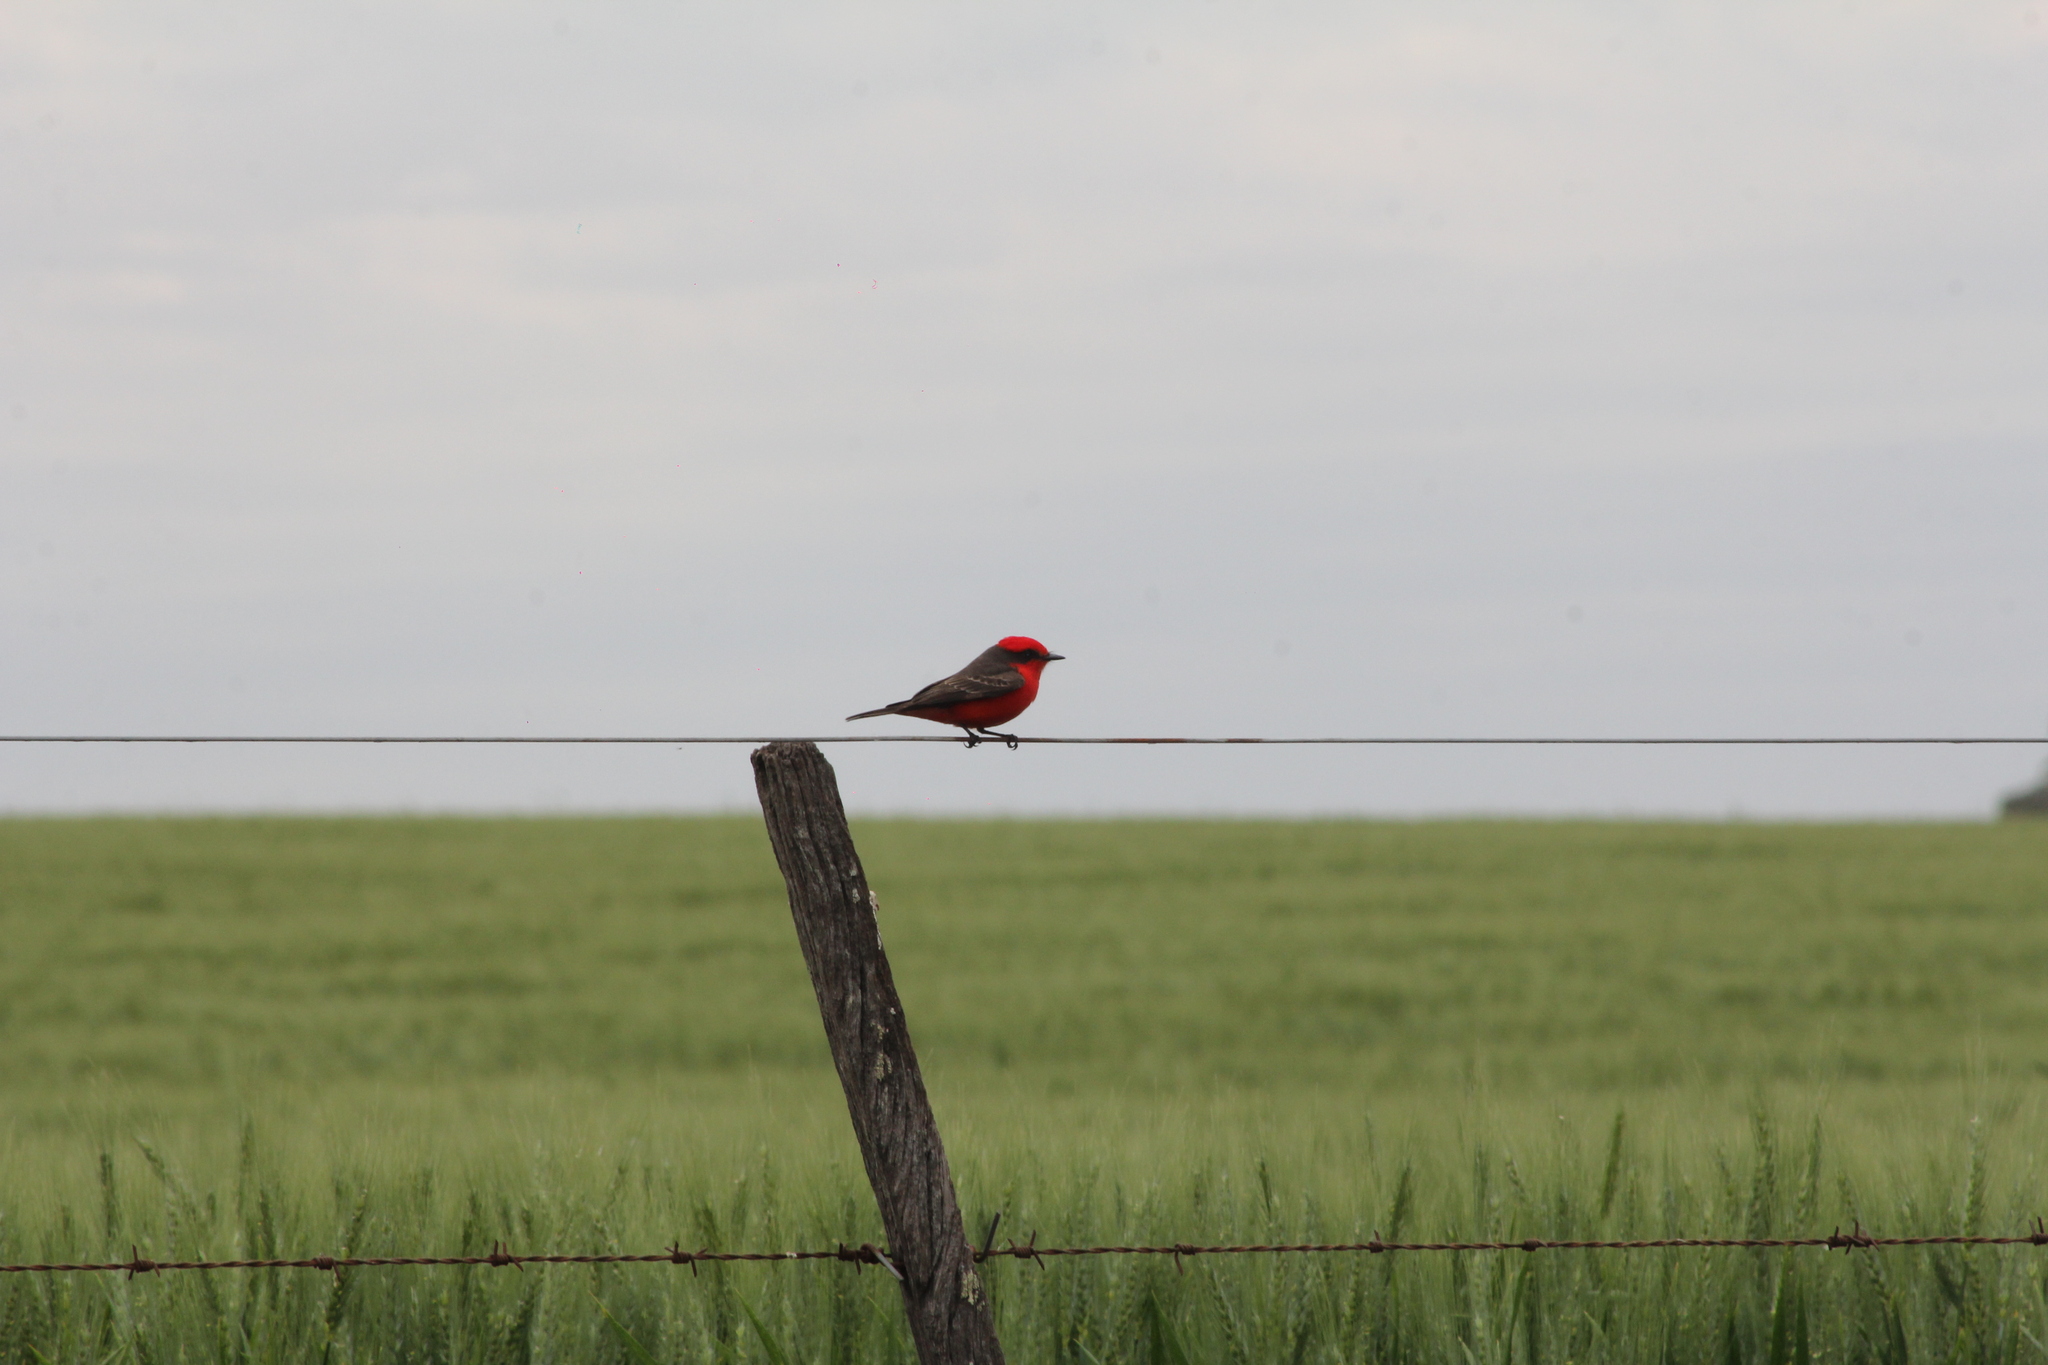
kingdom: Animalia
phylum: Chordata
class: Aves
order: Passeriformes
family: Tyrannidae
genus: Pyrocephalus
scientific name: Pyrocephalus rubinus
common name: Vermilion flycatcher
